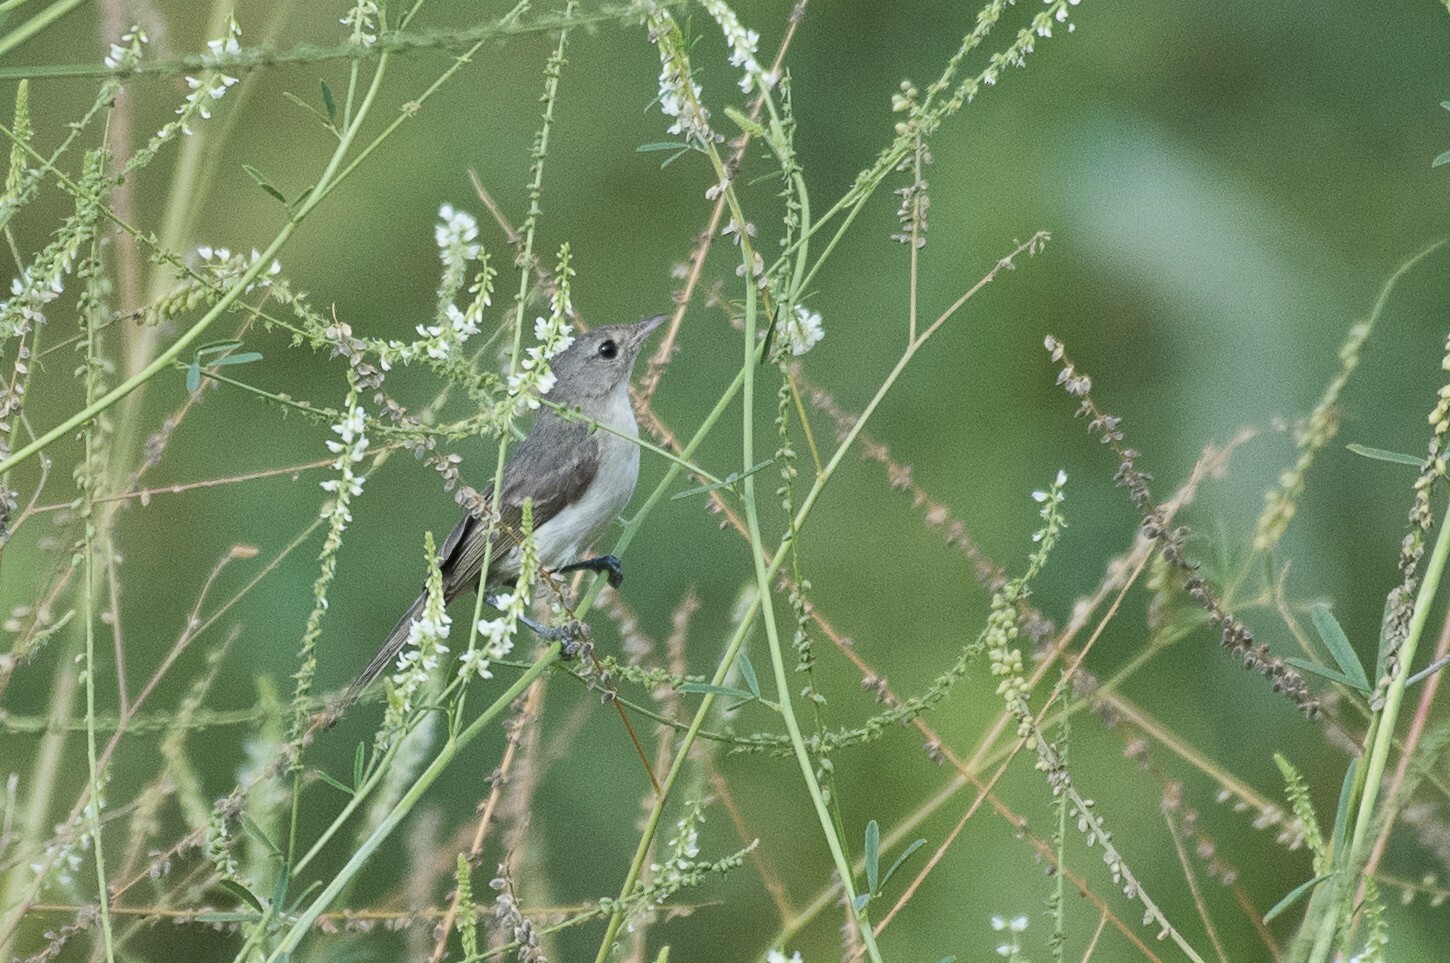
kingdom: Animalia
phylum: Chordata
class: Aves
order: Passeriformes
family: Vireonidae
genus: Vireo
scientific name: Vireo bellii
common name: Bell's vireo
